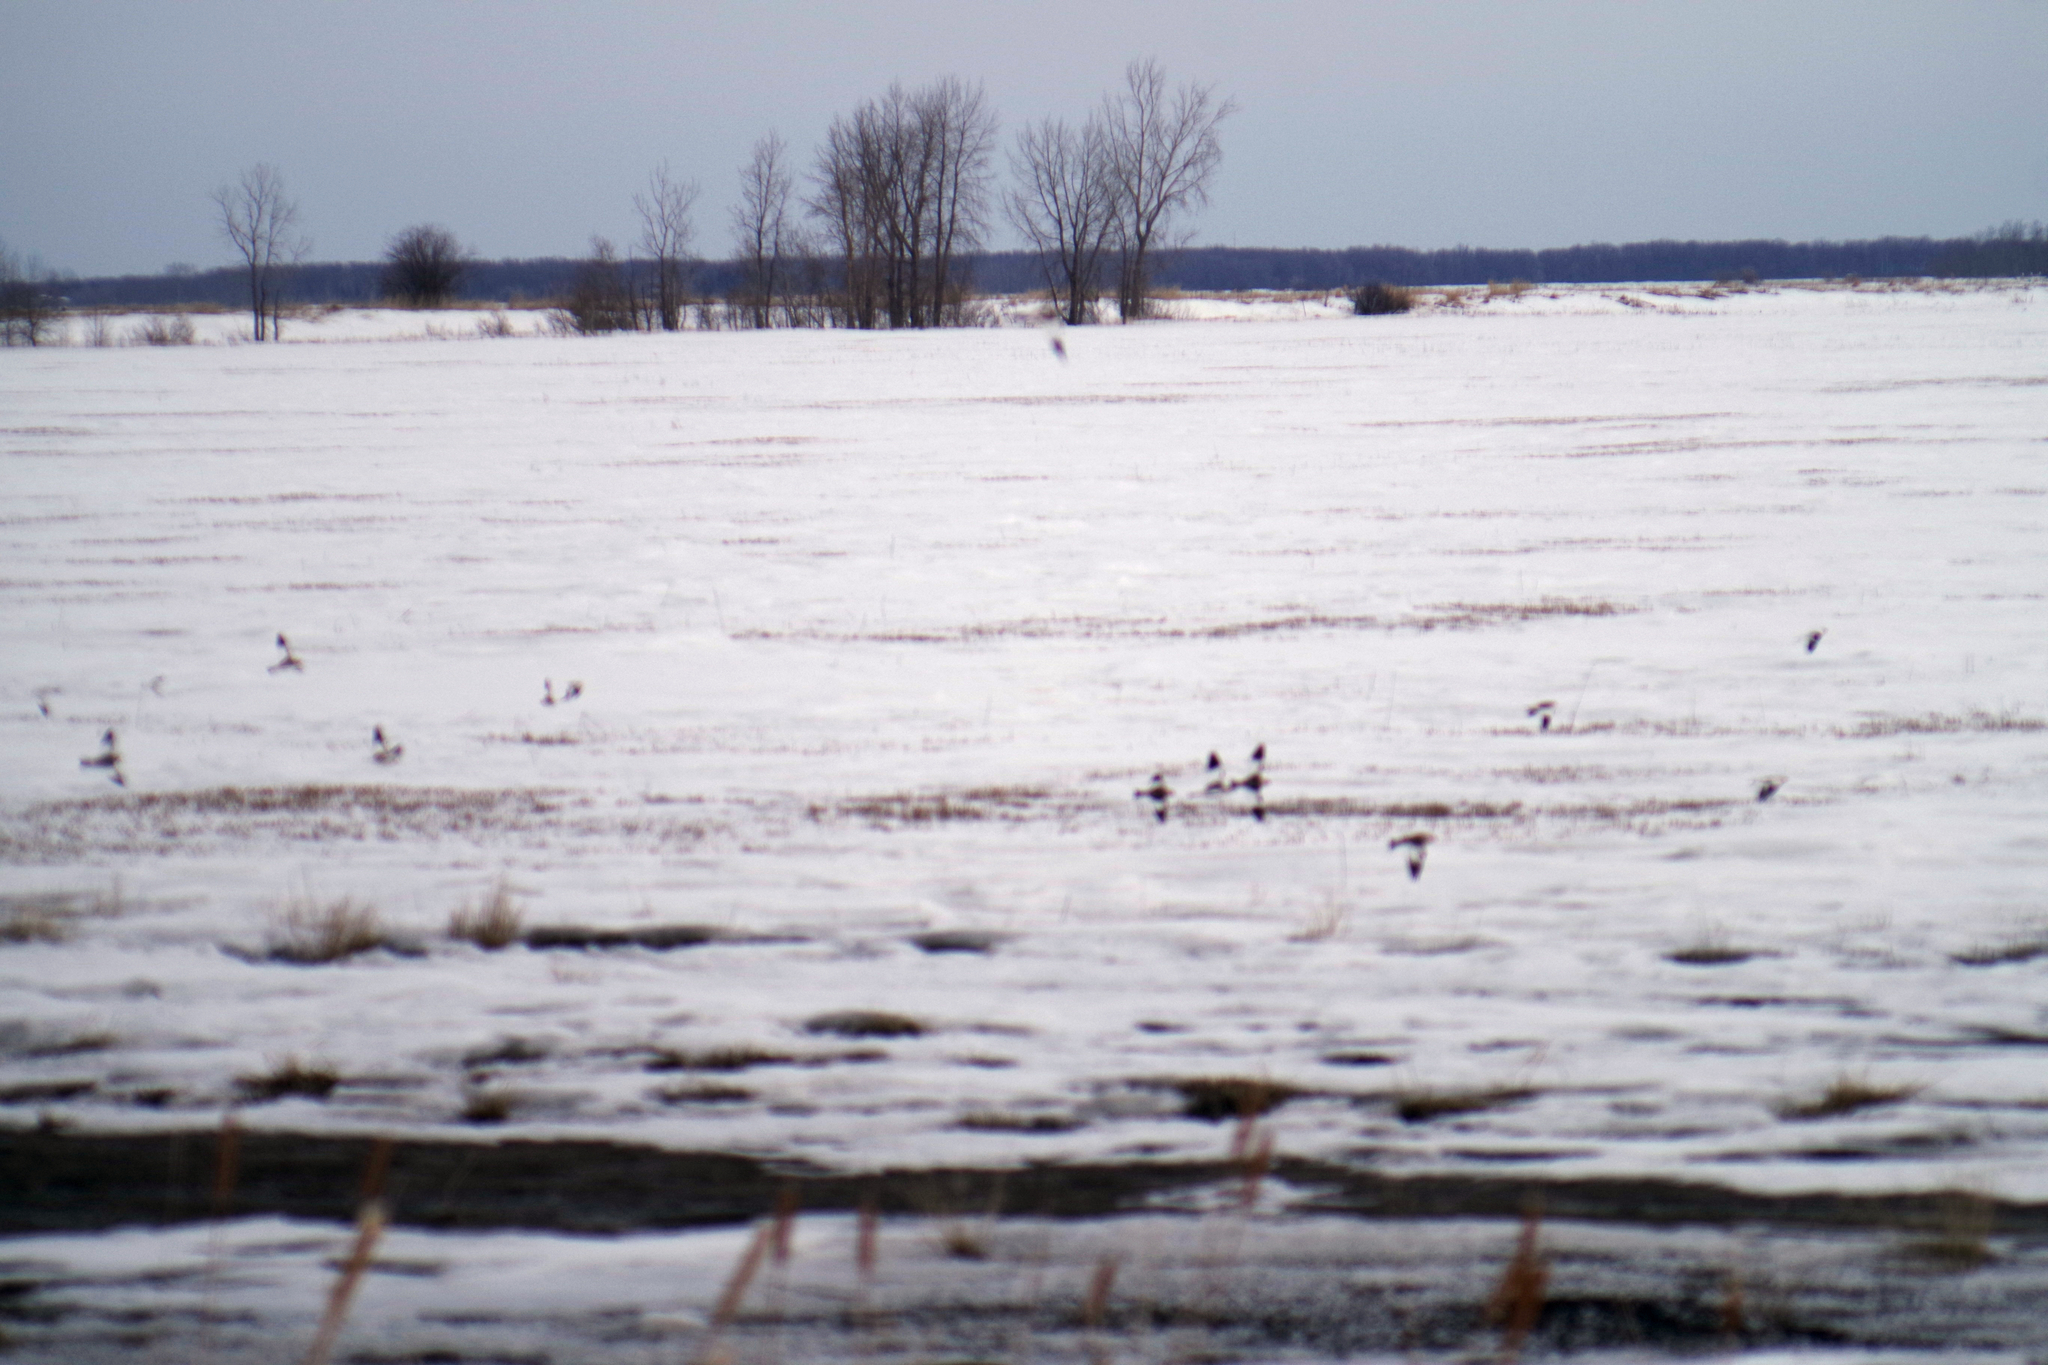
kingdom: Animalia
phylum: Chordata
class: Aves
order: Passeriformes
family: Calcariidae
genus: Plectrophenax
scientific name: Plectrophenax nivalis
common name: Snow bunting
